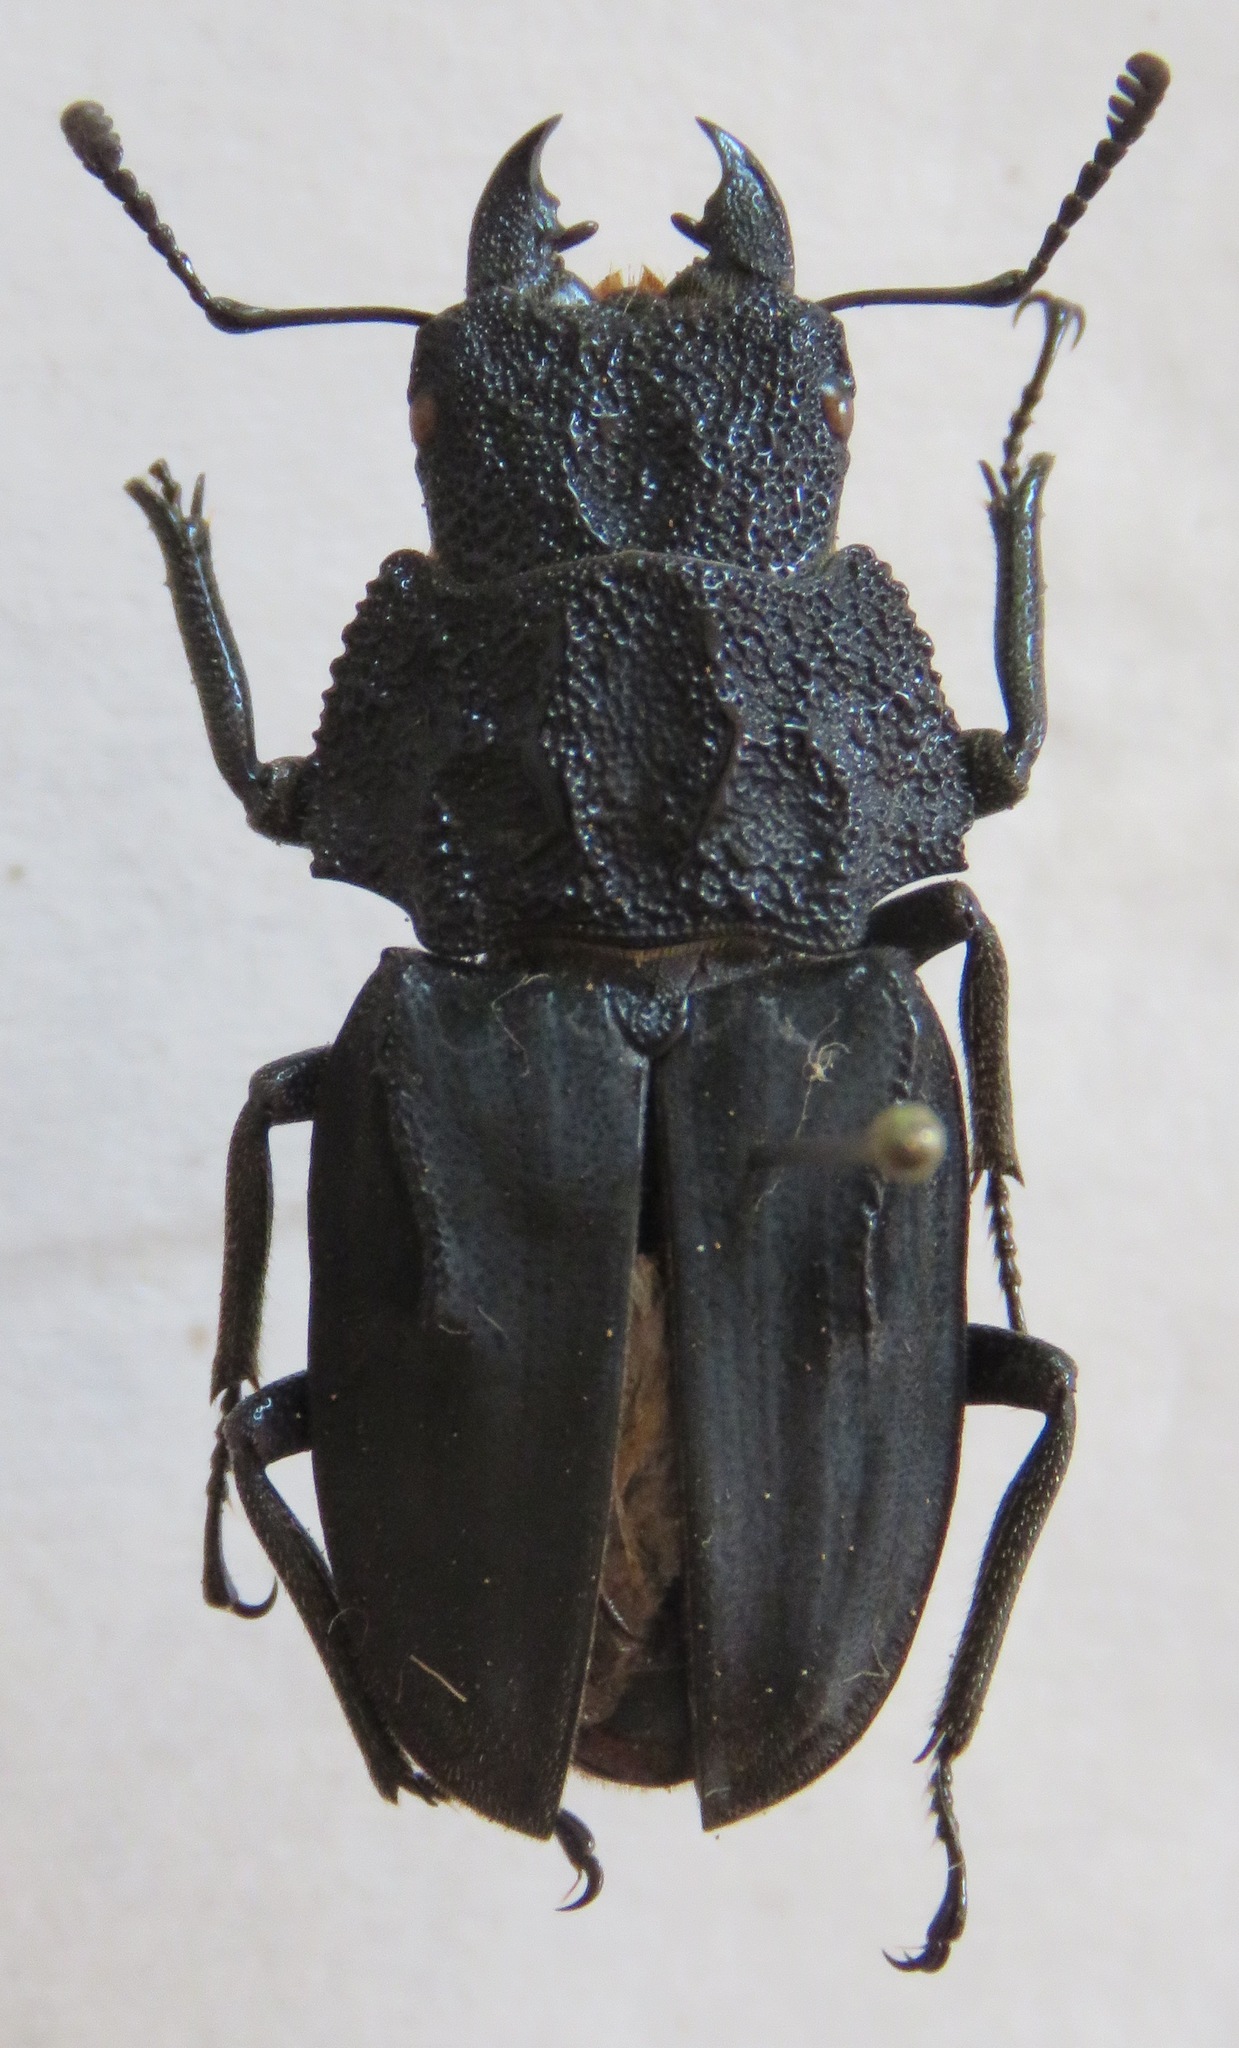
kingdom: Animalia
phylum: Arthropoda
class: Insecta
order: Coleoptera
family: Lucanidae
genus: Cantharolethrus
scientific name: Cantharolethrus luxerii
